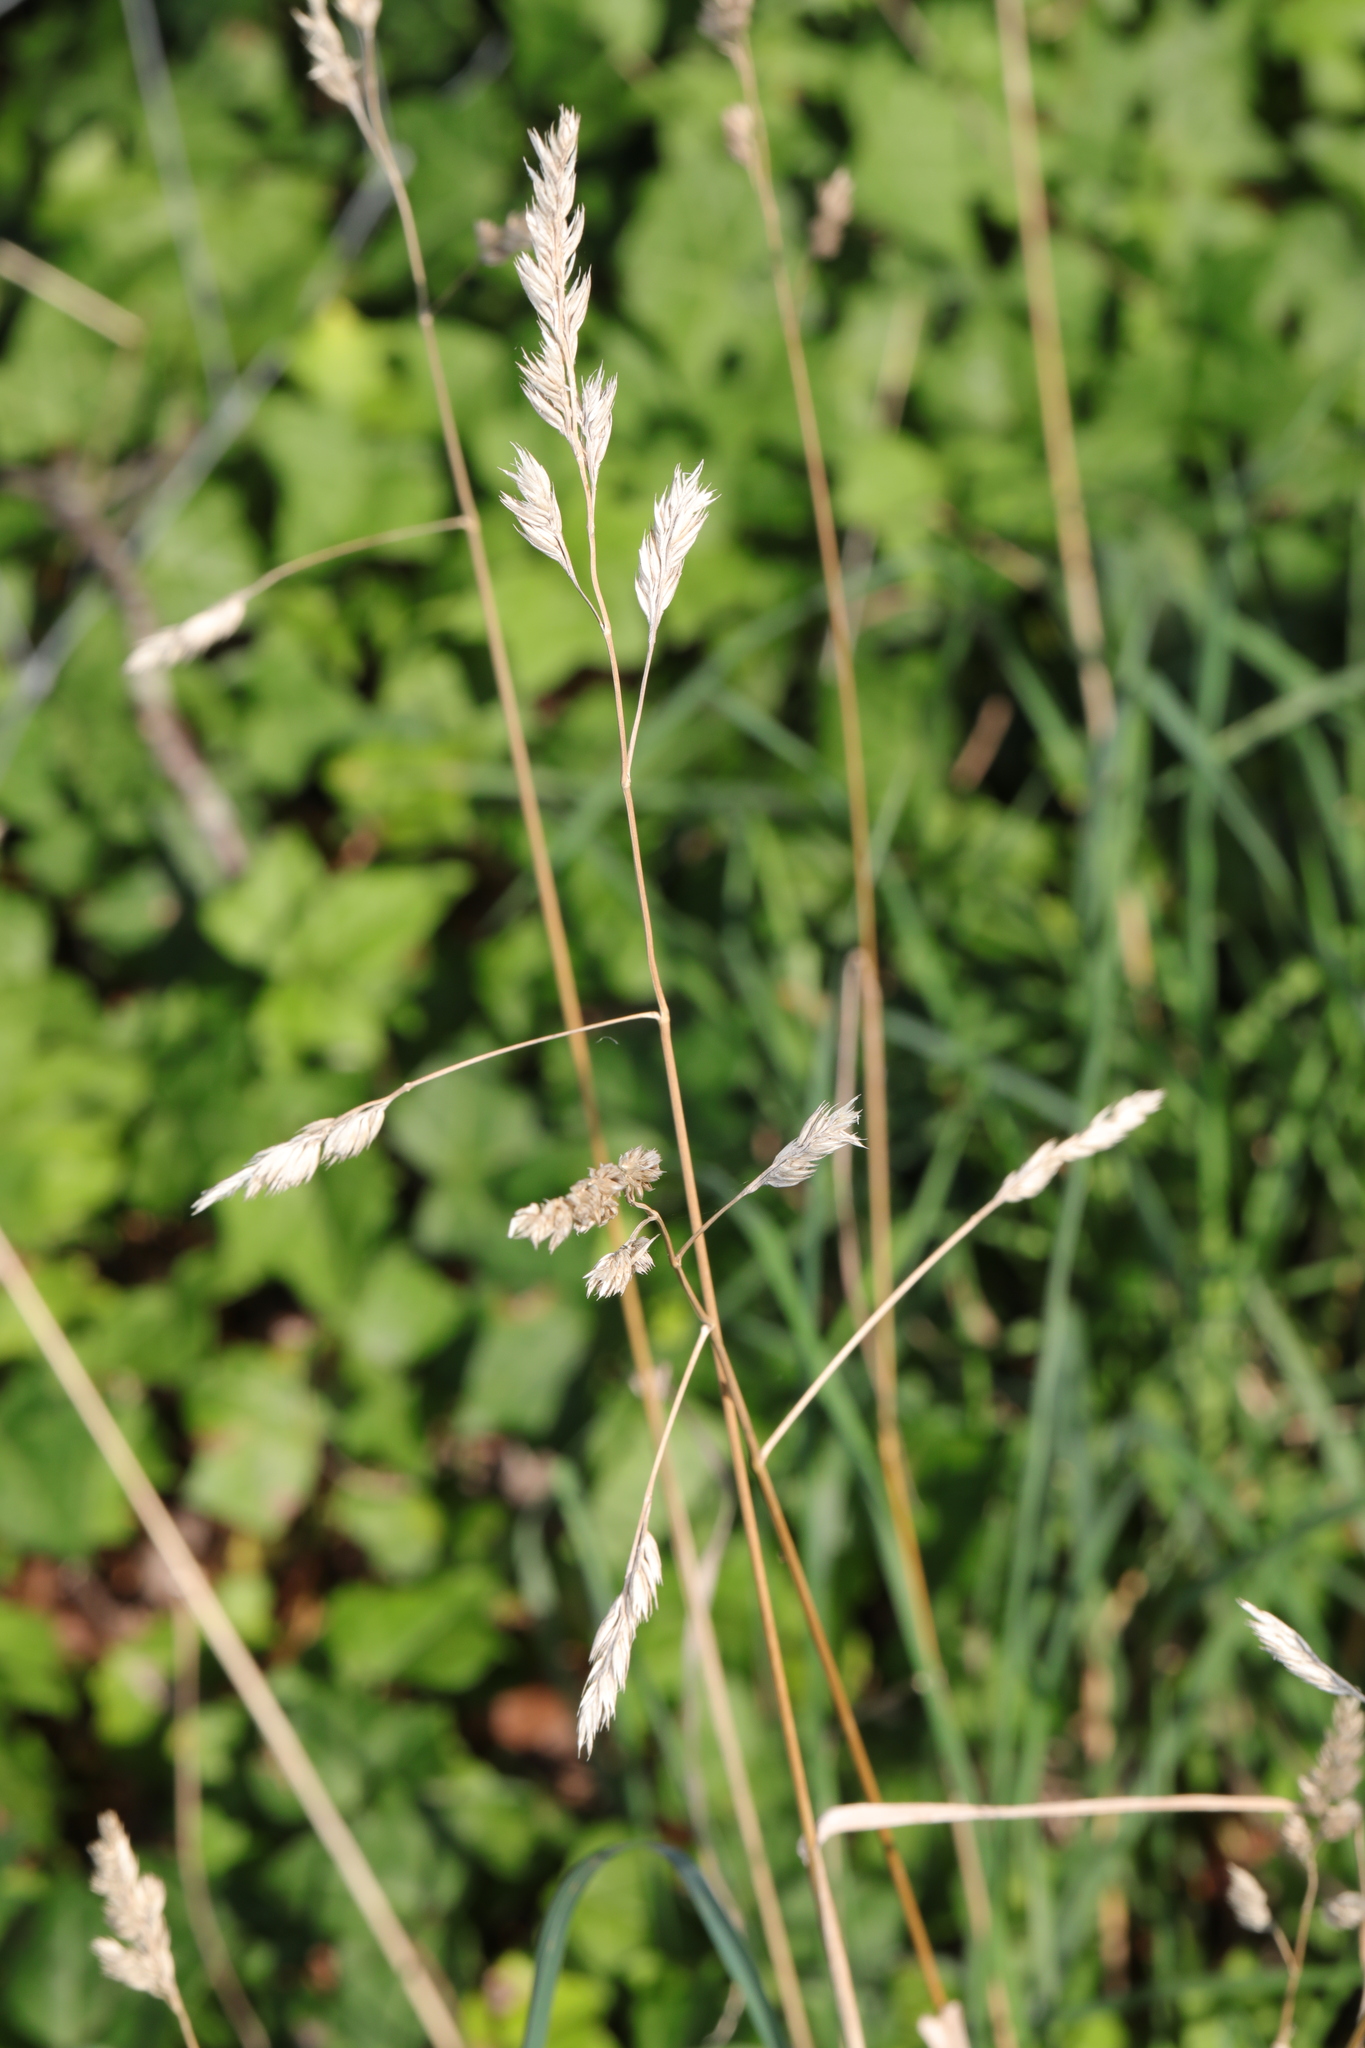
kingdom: Plantae
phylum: Tracheophyta
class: Liliopsida
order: Poales
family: Poaceae
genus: Dactylis
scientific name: Dactylis glomerata
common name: Orchardgrass
